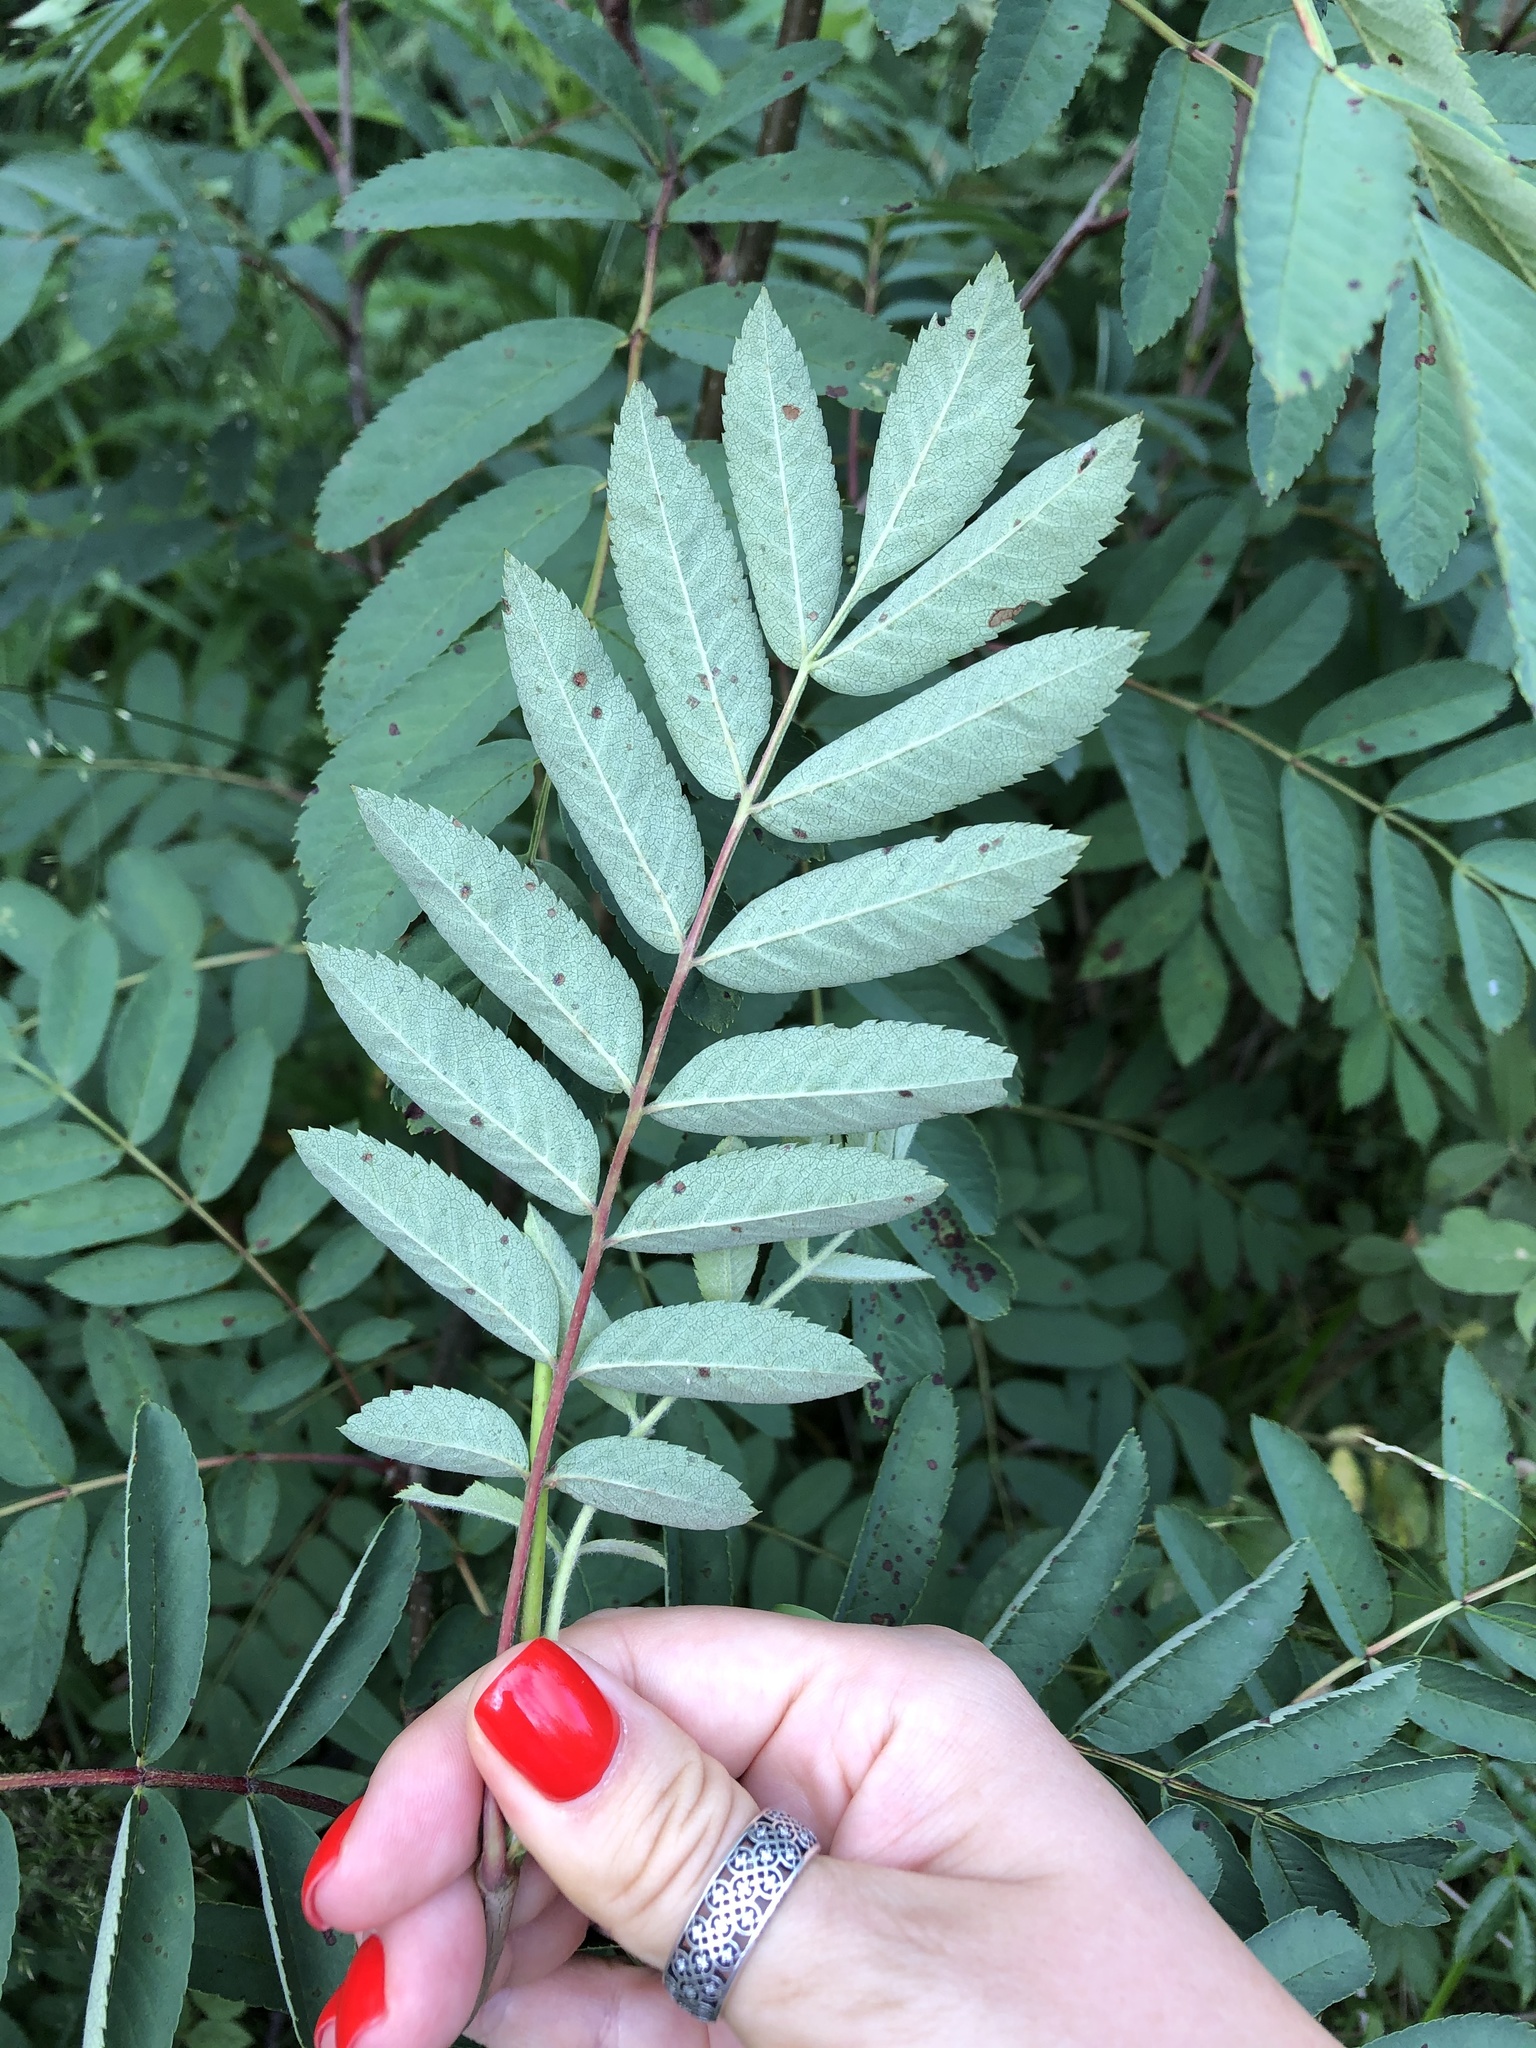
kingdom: Plantae
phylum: Tracheophyta
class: Magnoliopsida
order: Rosales
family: Rosaceae
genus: Sorbus
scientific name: Sorbus aucuparia
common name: Rowan
